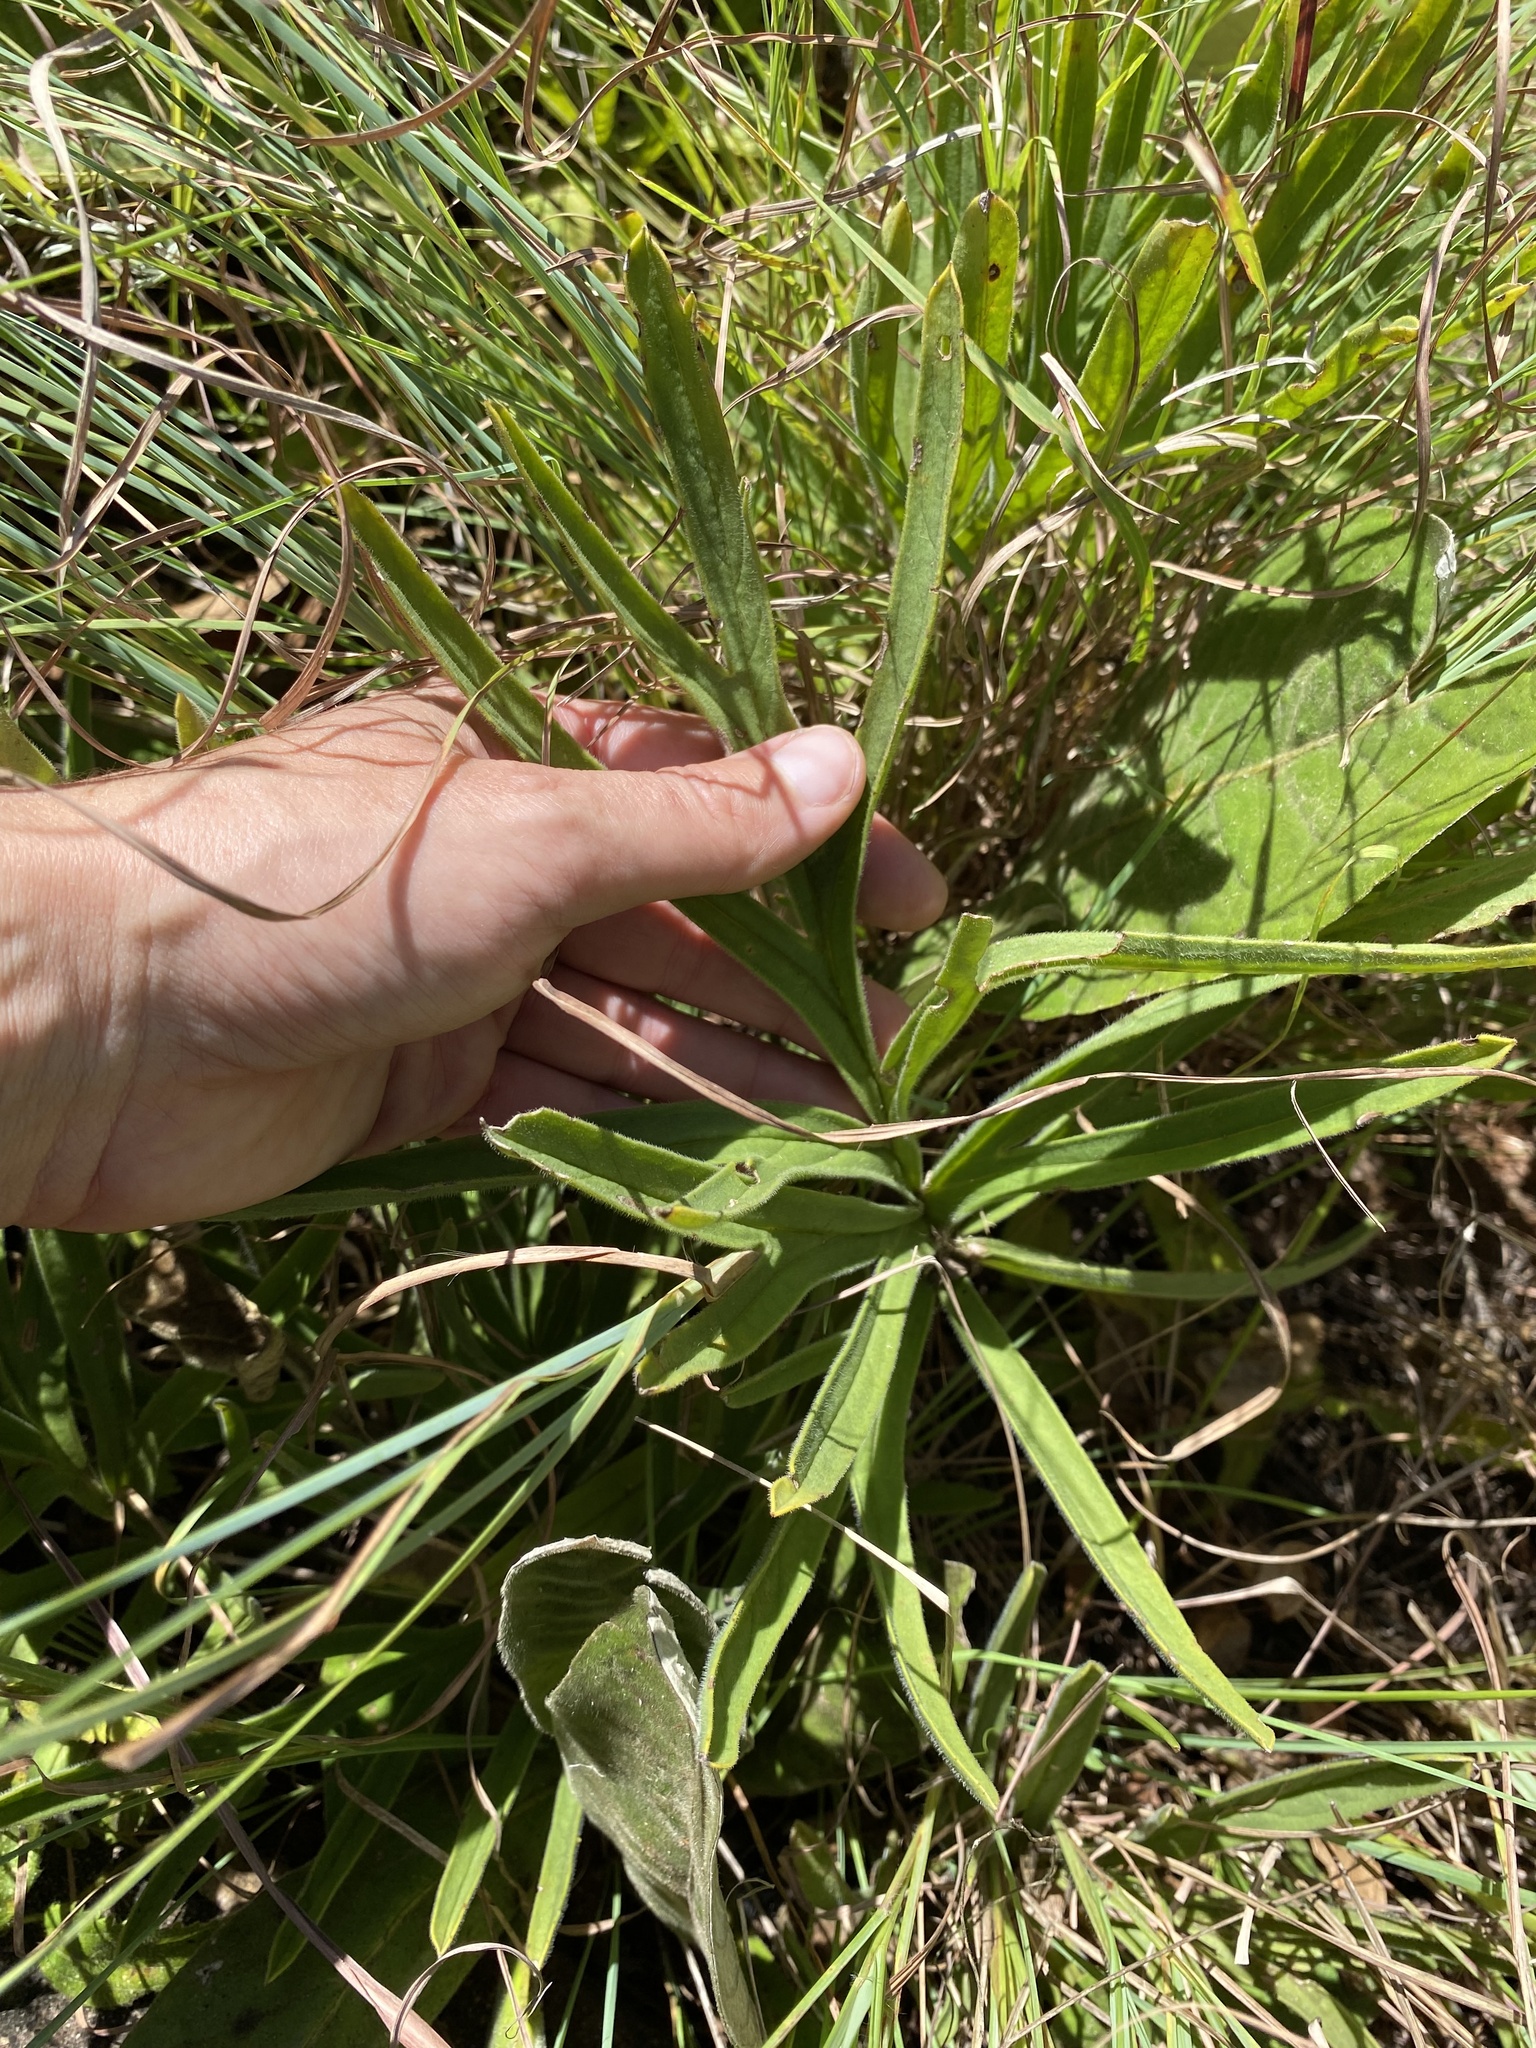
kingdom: Plantae
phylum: Tracheophyta
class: Magnoliopsida
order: Geraniales
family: Geraniaceae
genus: Pelargonium
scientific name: Pelargonium luridum
